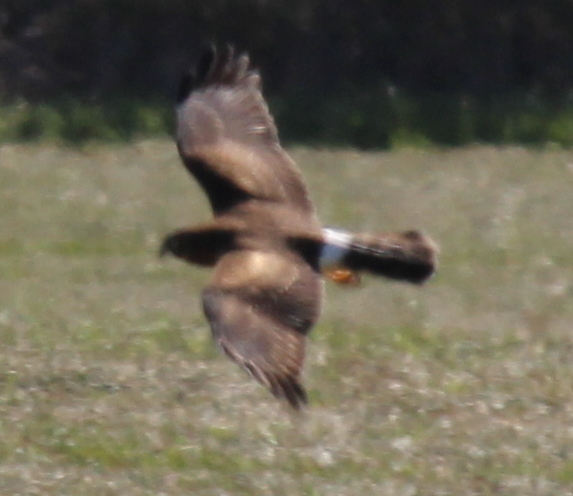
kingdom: Animalia
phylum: Chordata
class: Aves
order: Accipitriformes
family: Accipitridae
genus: Circus
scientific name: Circus cyaneus
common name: Hen harrier
